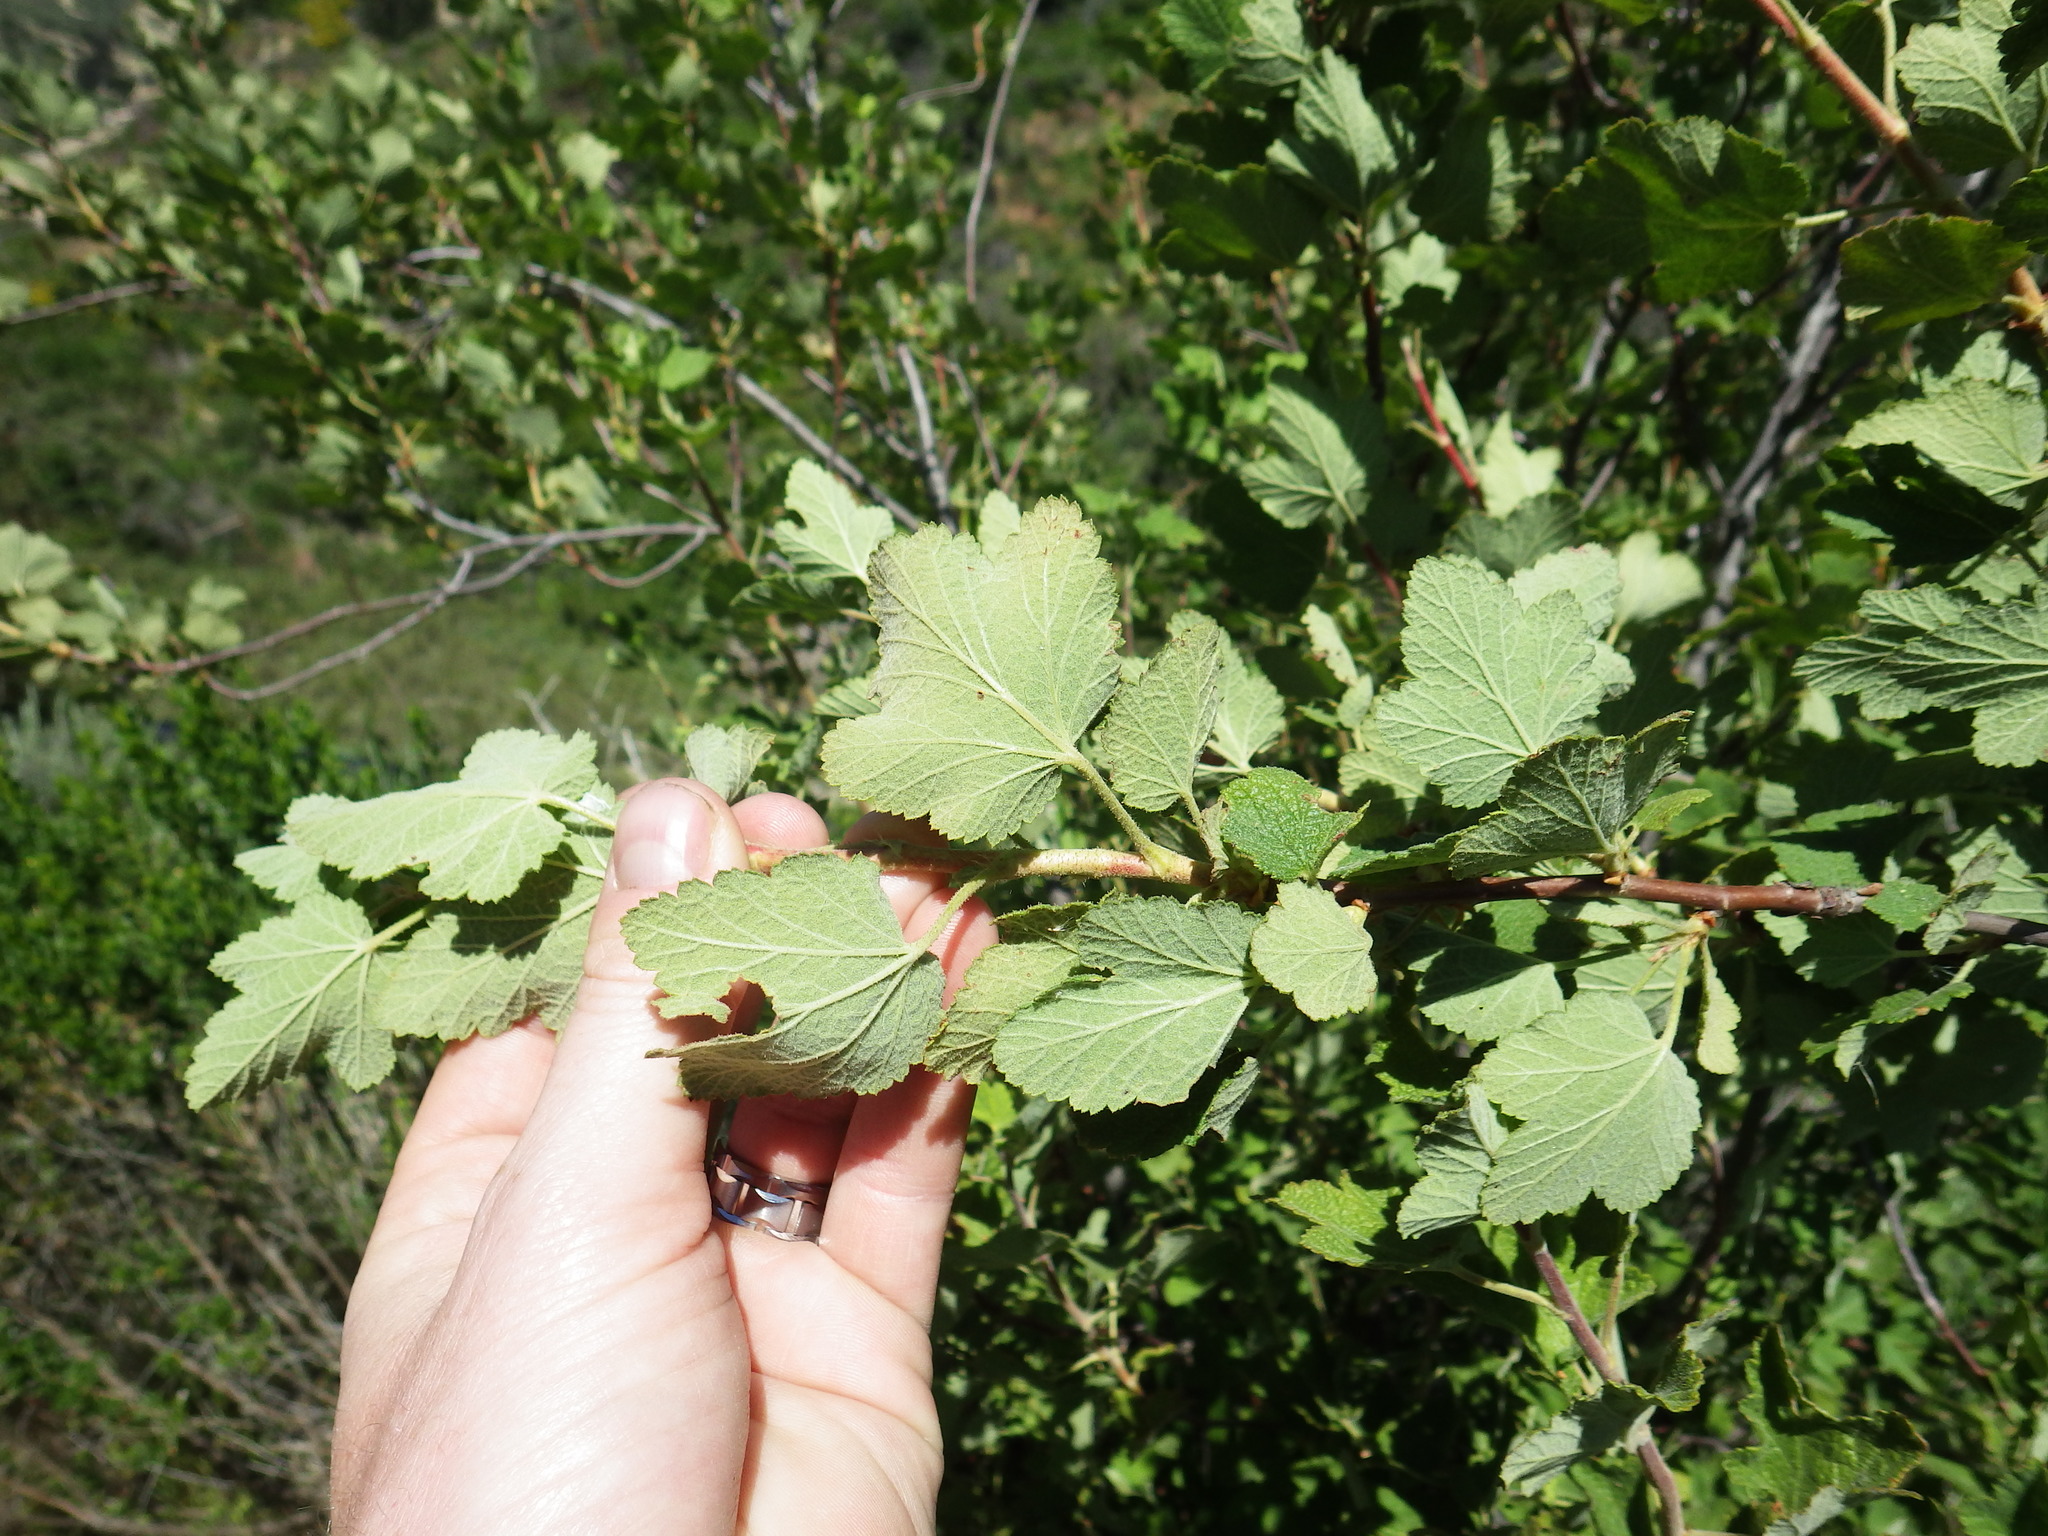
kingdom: Plantae
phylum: Tracheophyta
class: Magnoliopsida
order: Saxifragales
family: Grossulariaceae
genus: Ribes
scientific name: Ribes indecorum
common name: White-flower currant
